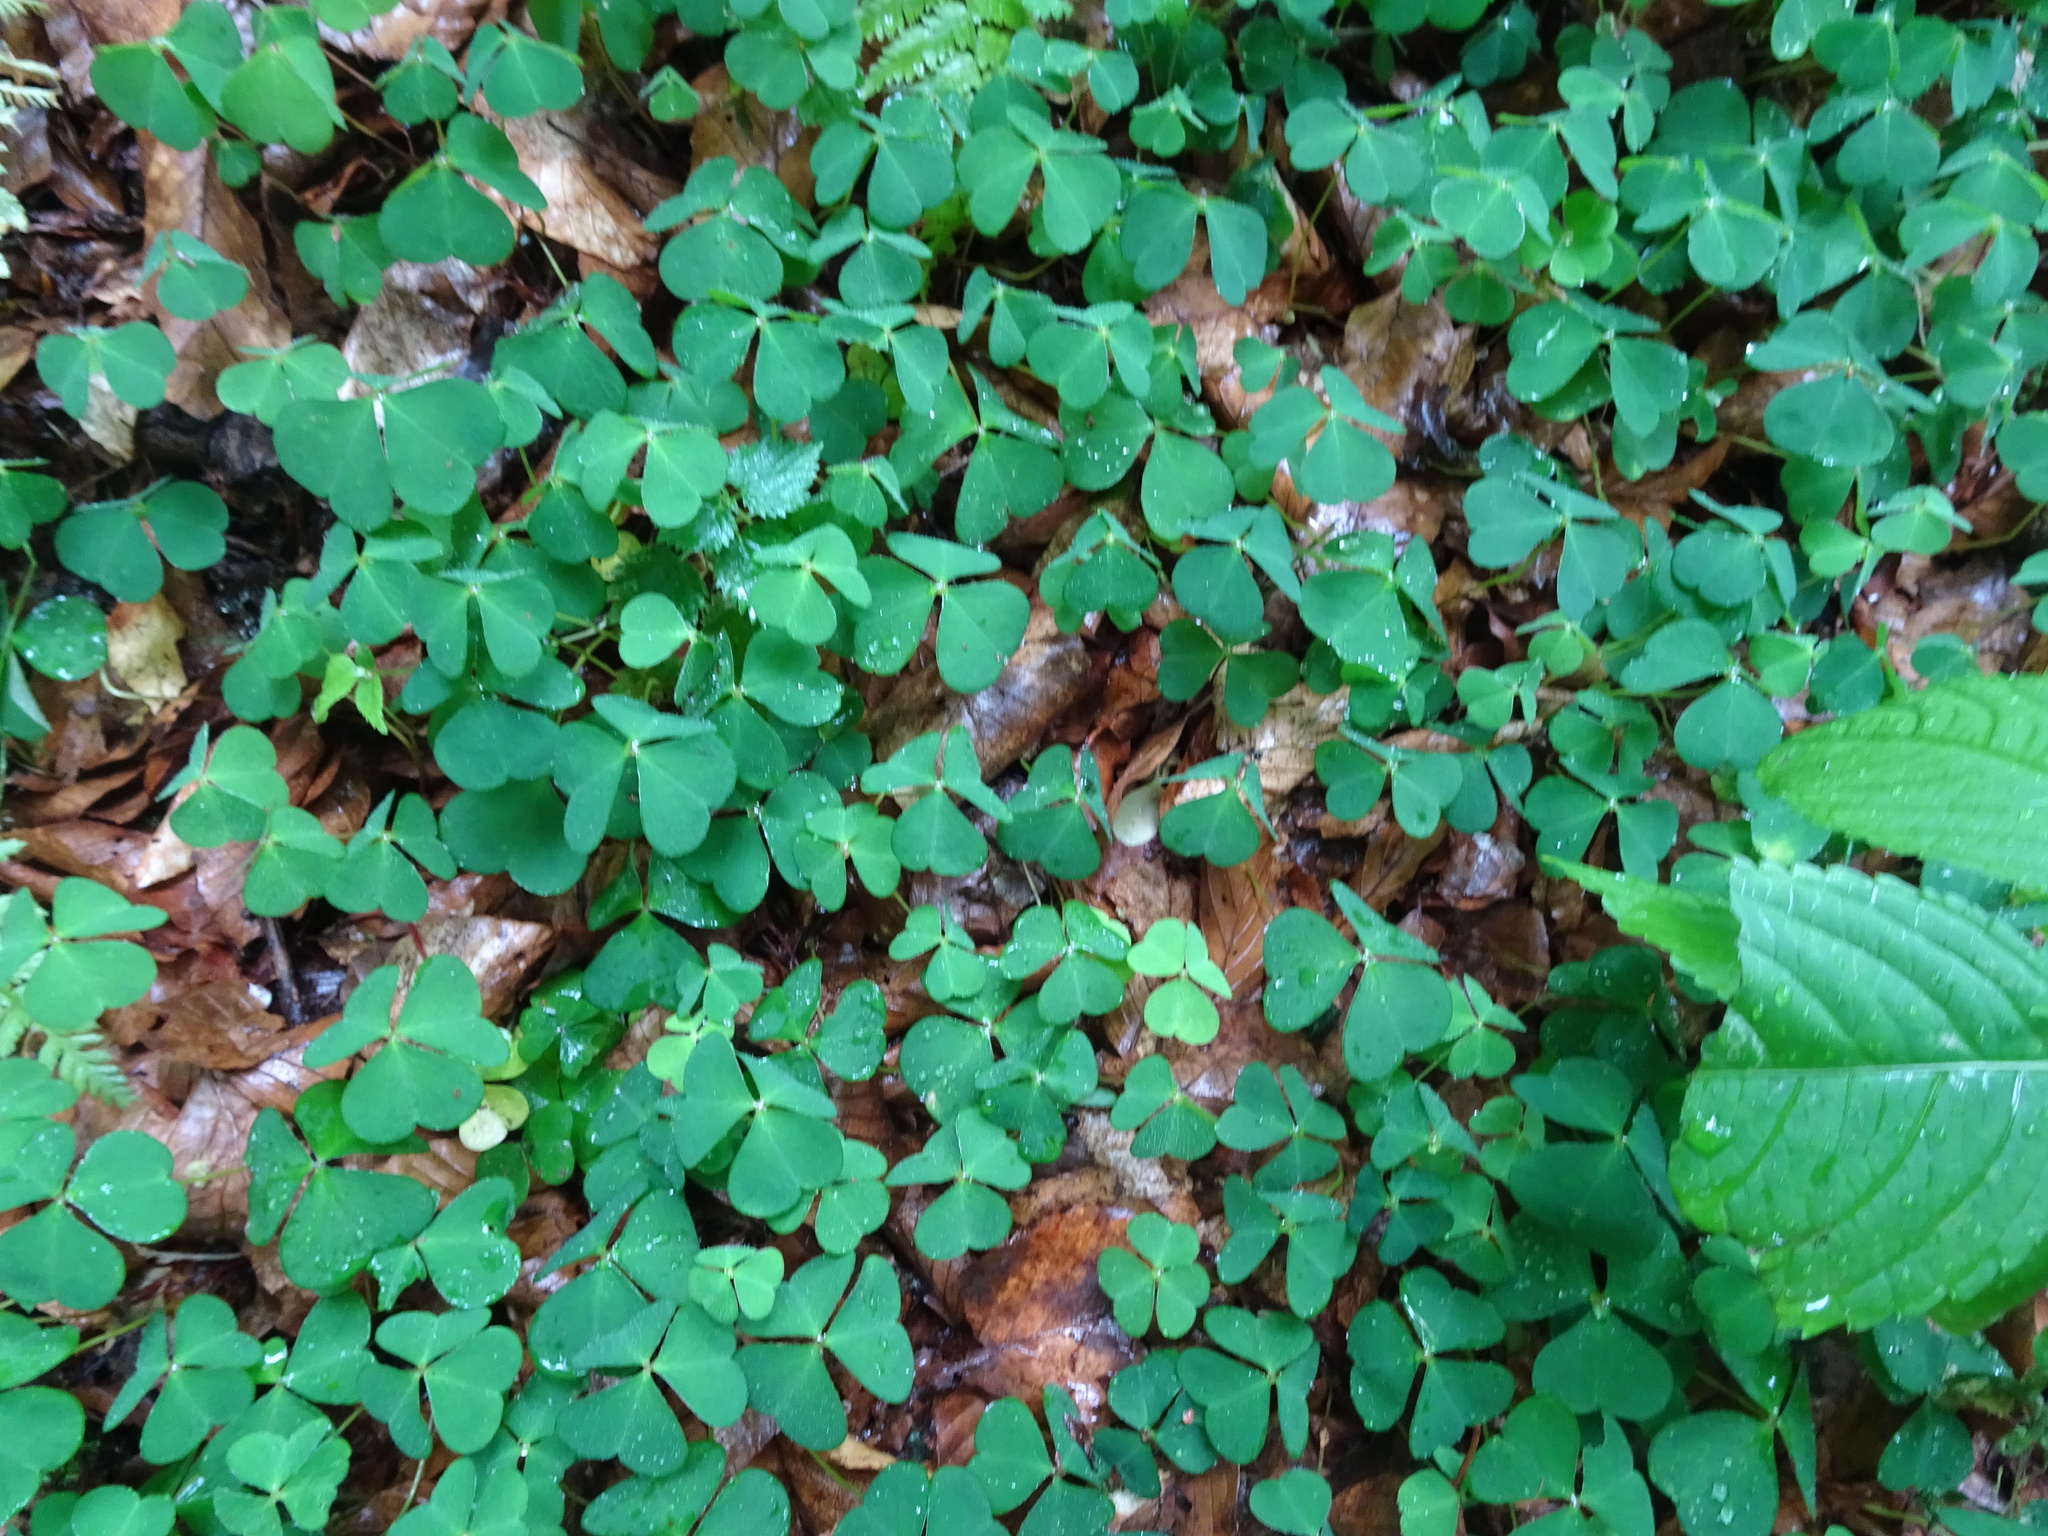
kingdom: Plantae
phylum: Tracheophyta
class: Magnoliopsida
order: Oxalidales
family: Oxalidaceae
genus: Oxalis
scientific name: Oxalis acetosella
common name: Wood-sorrel
